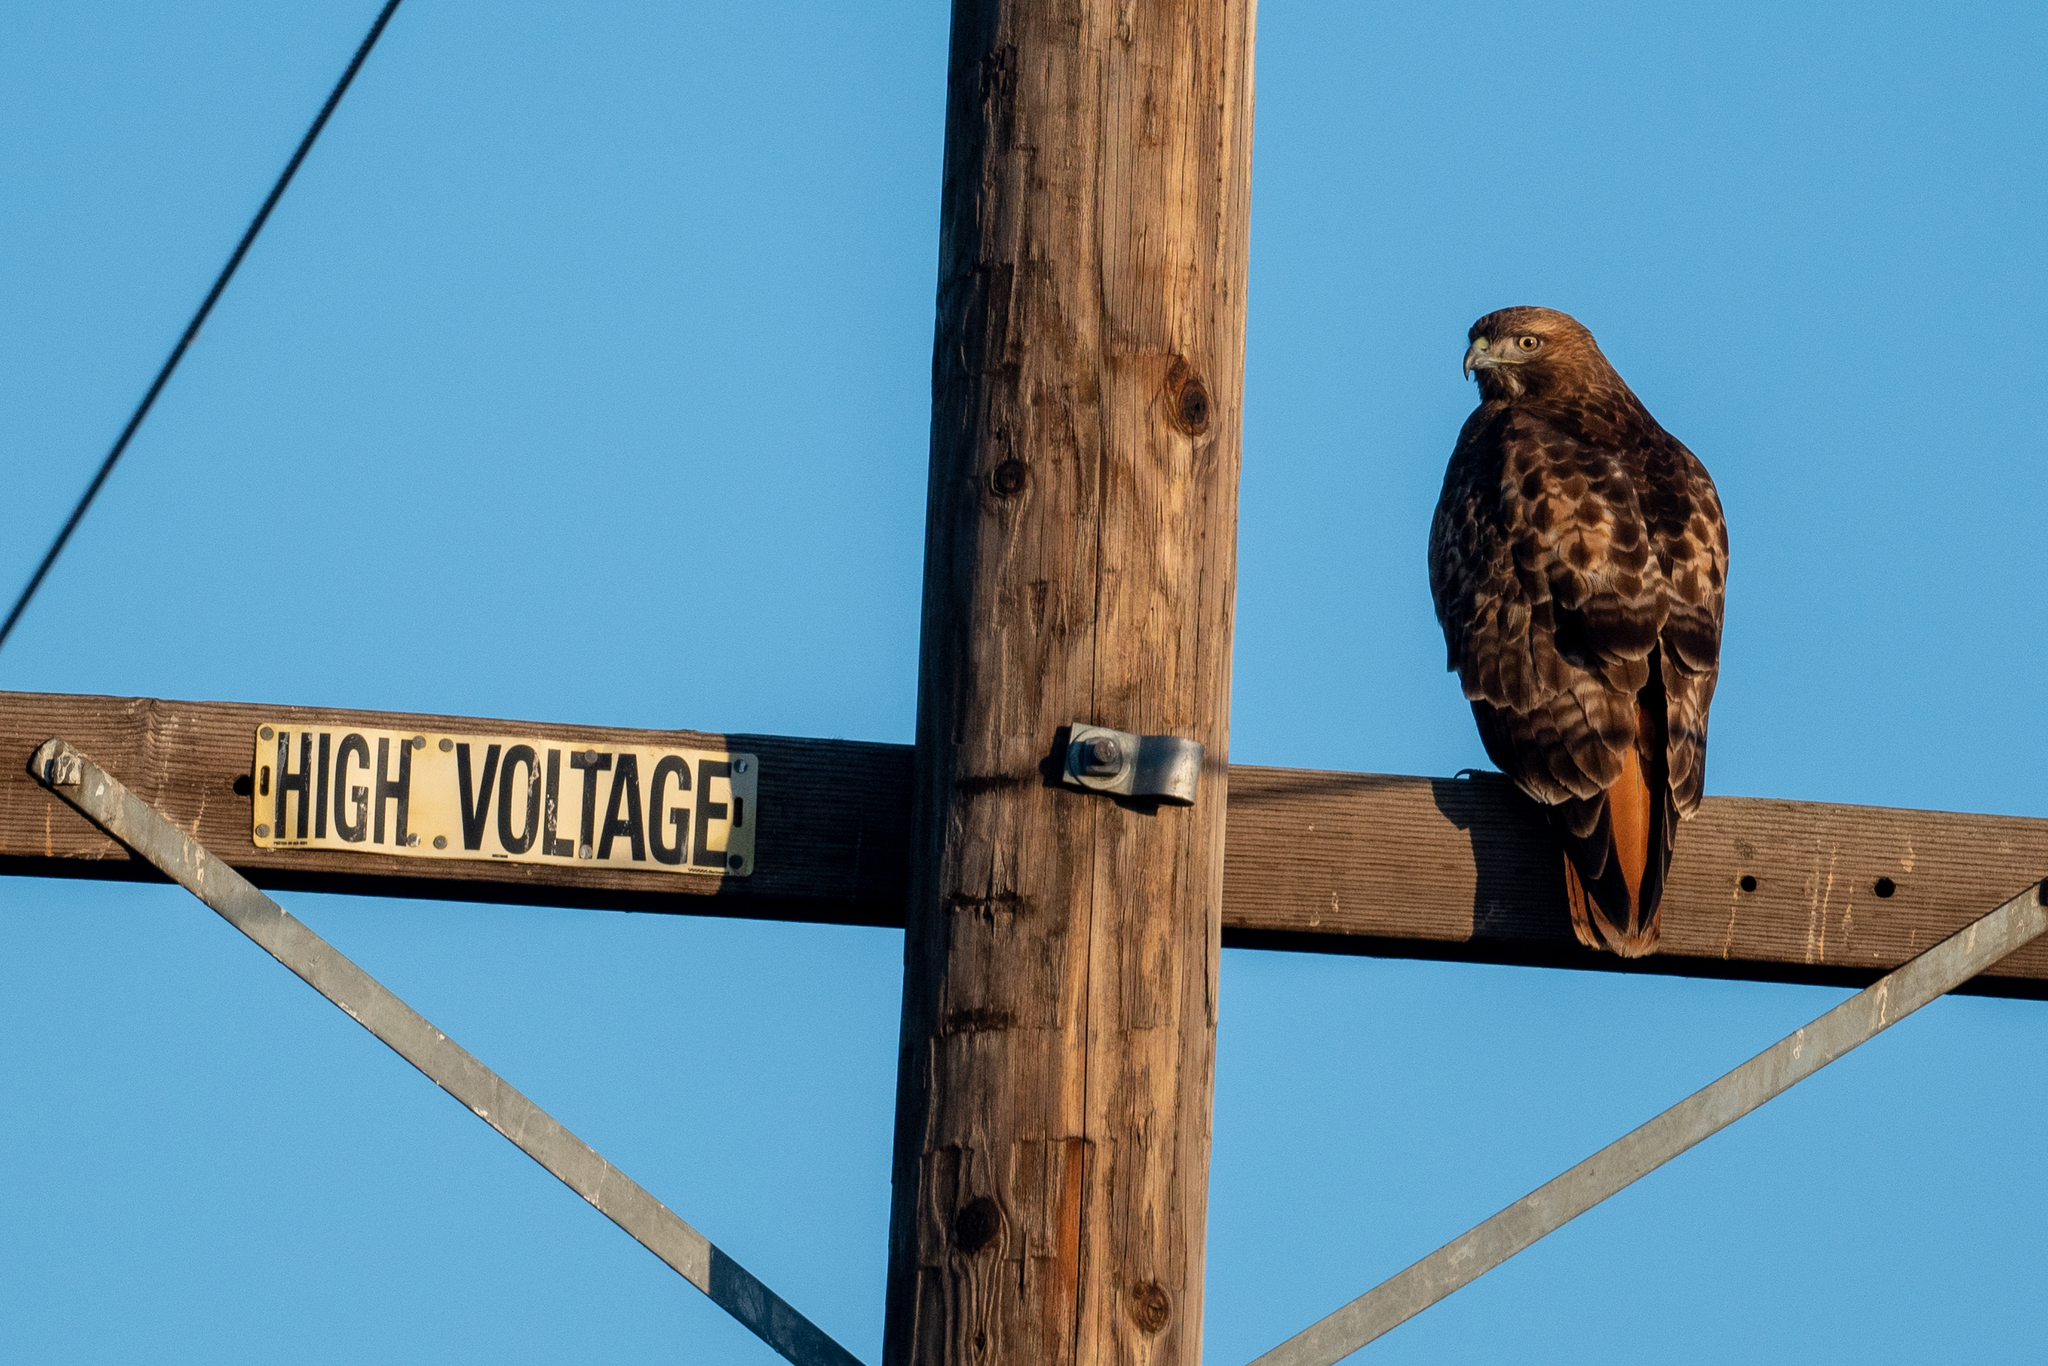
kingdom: Animalia
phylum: Chordata
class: Aves
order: Accipitriformes
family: Accipitridae
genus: Buteo
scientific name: Buteo jamaicensis
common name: Red-tailed hawk
